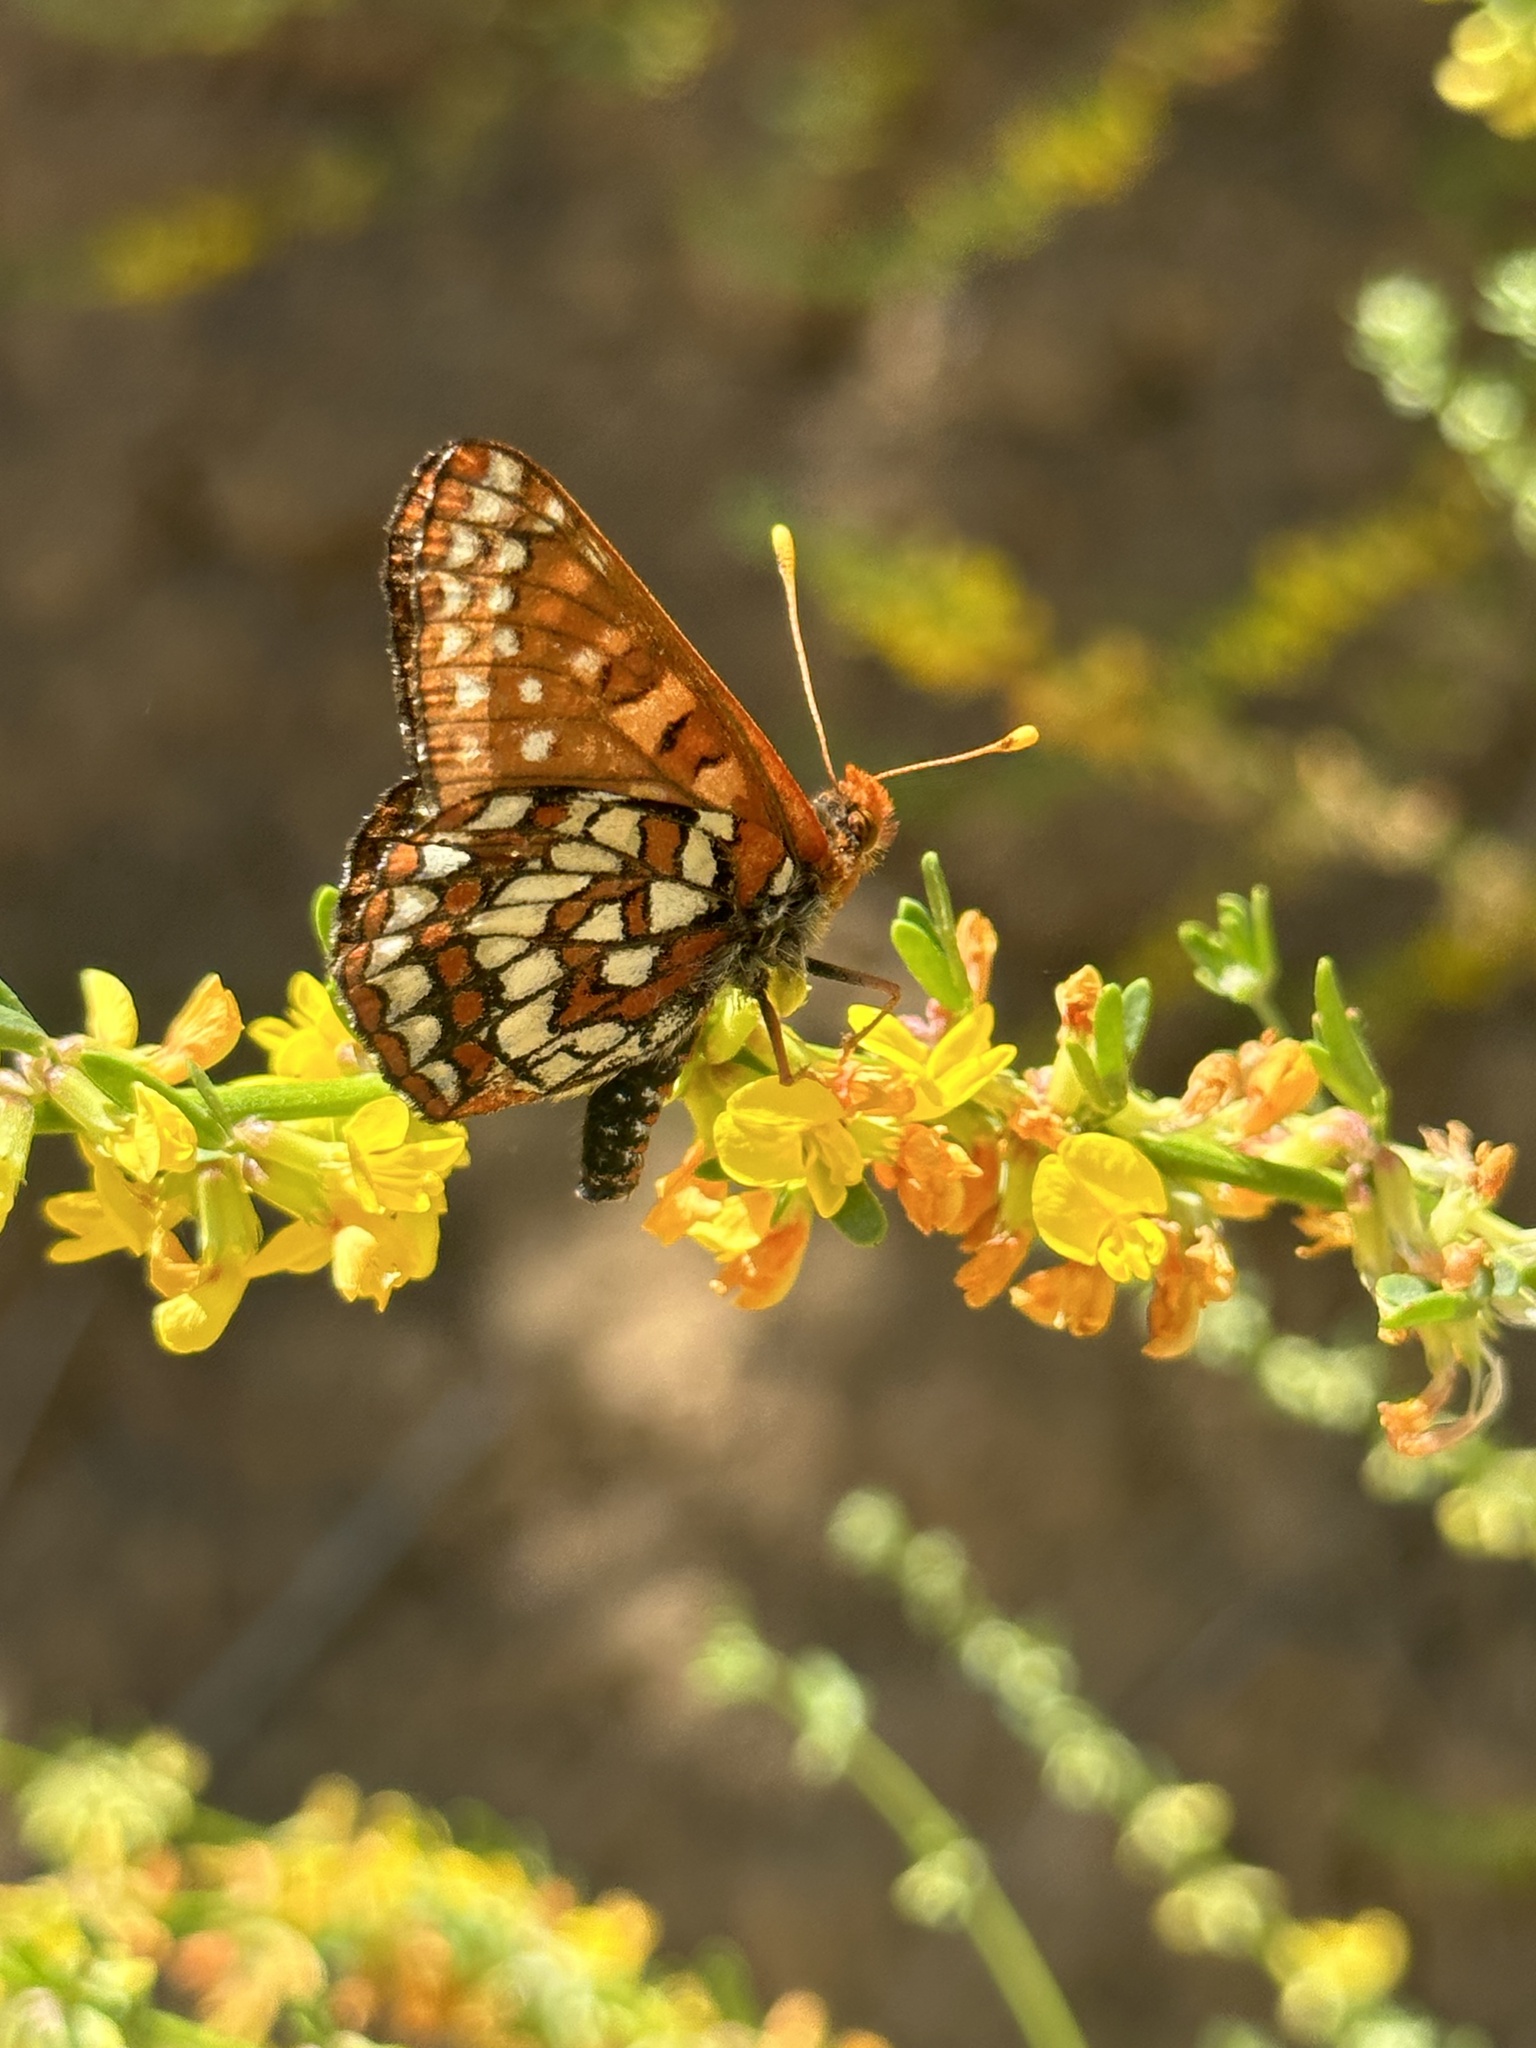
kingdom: Animalia
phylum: Arthropoda
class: Insecta
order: Lepidoptera
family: Nymphalidae
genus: Occidryas
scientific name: Occidryas chalcedona
